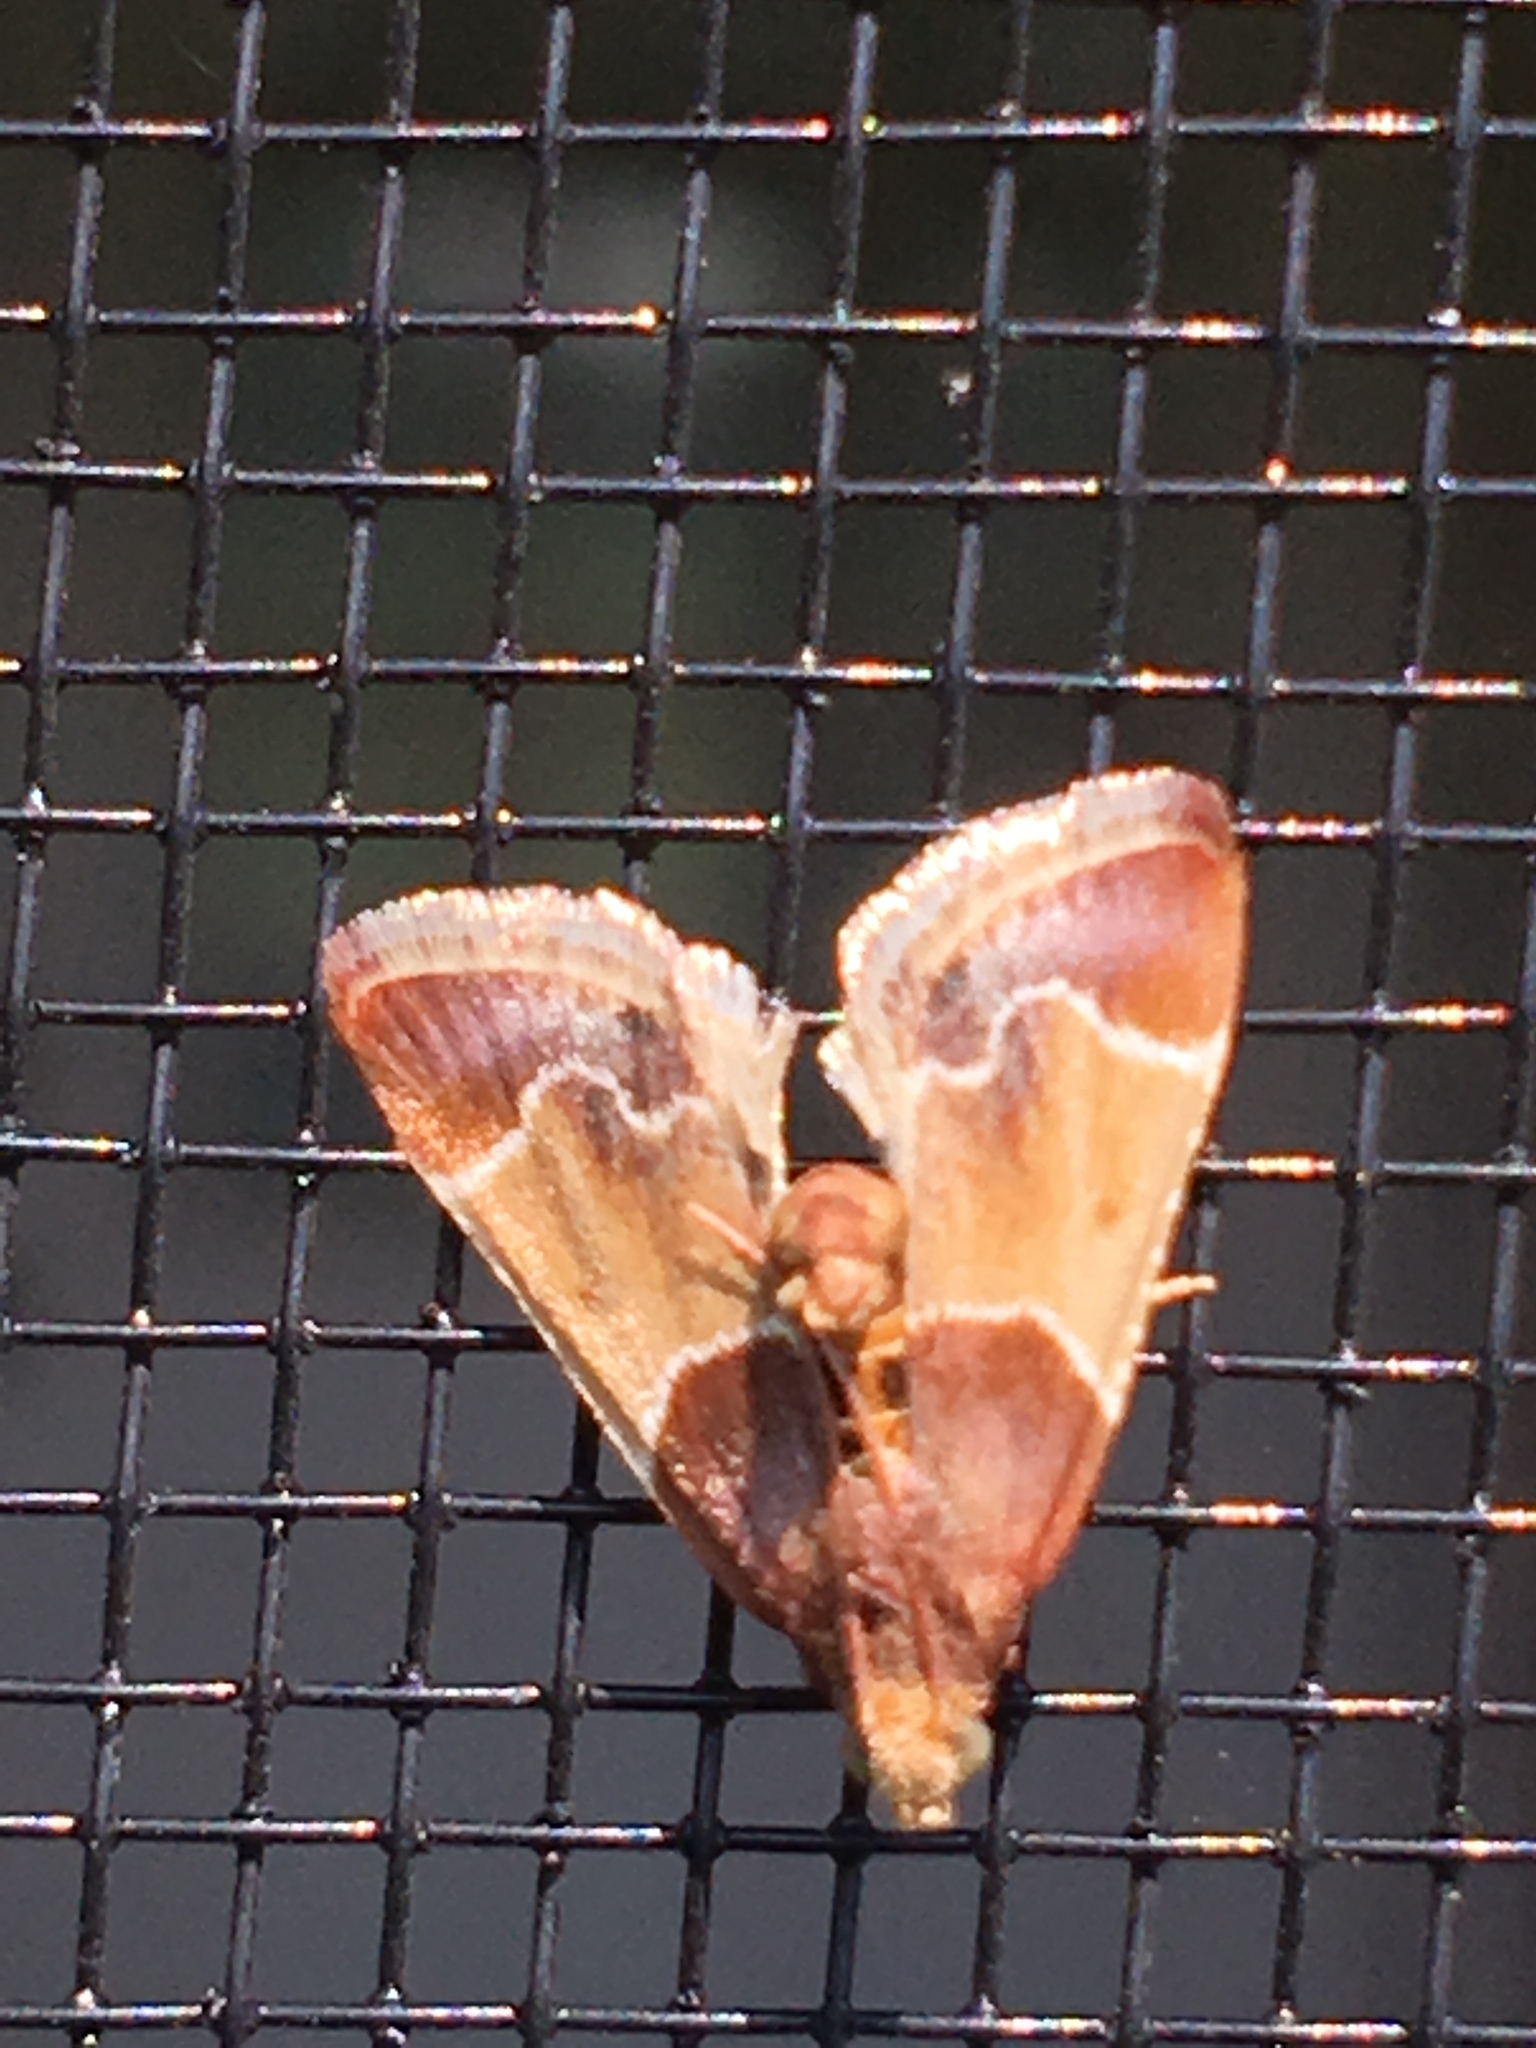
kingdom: Animalia
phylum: Arthropoda
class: Insecta
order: Lepidoptera
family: Pyralidae
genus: Pyralis
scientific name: Pyralis farinalis
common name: Meal moth
